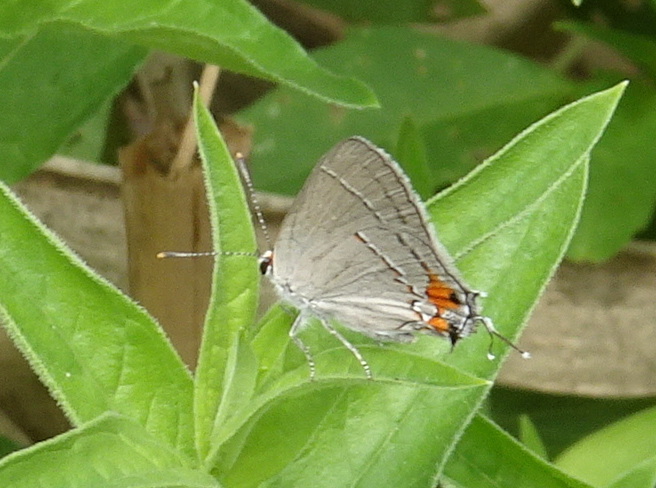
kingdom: Animalia
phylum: Arthropoda
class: Insecta
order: Lepidoptera
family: Lycaenidae
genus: Strymon
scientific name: Strymon melinus
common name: Gray hairstreak
